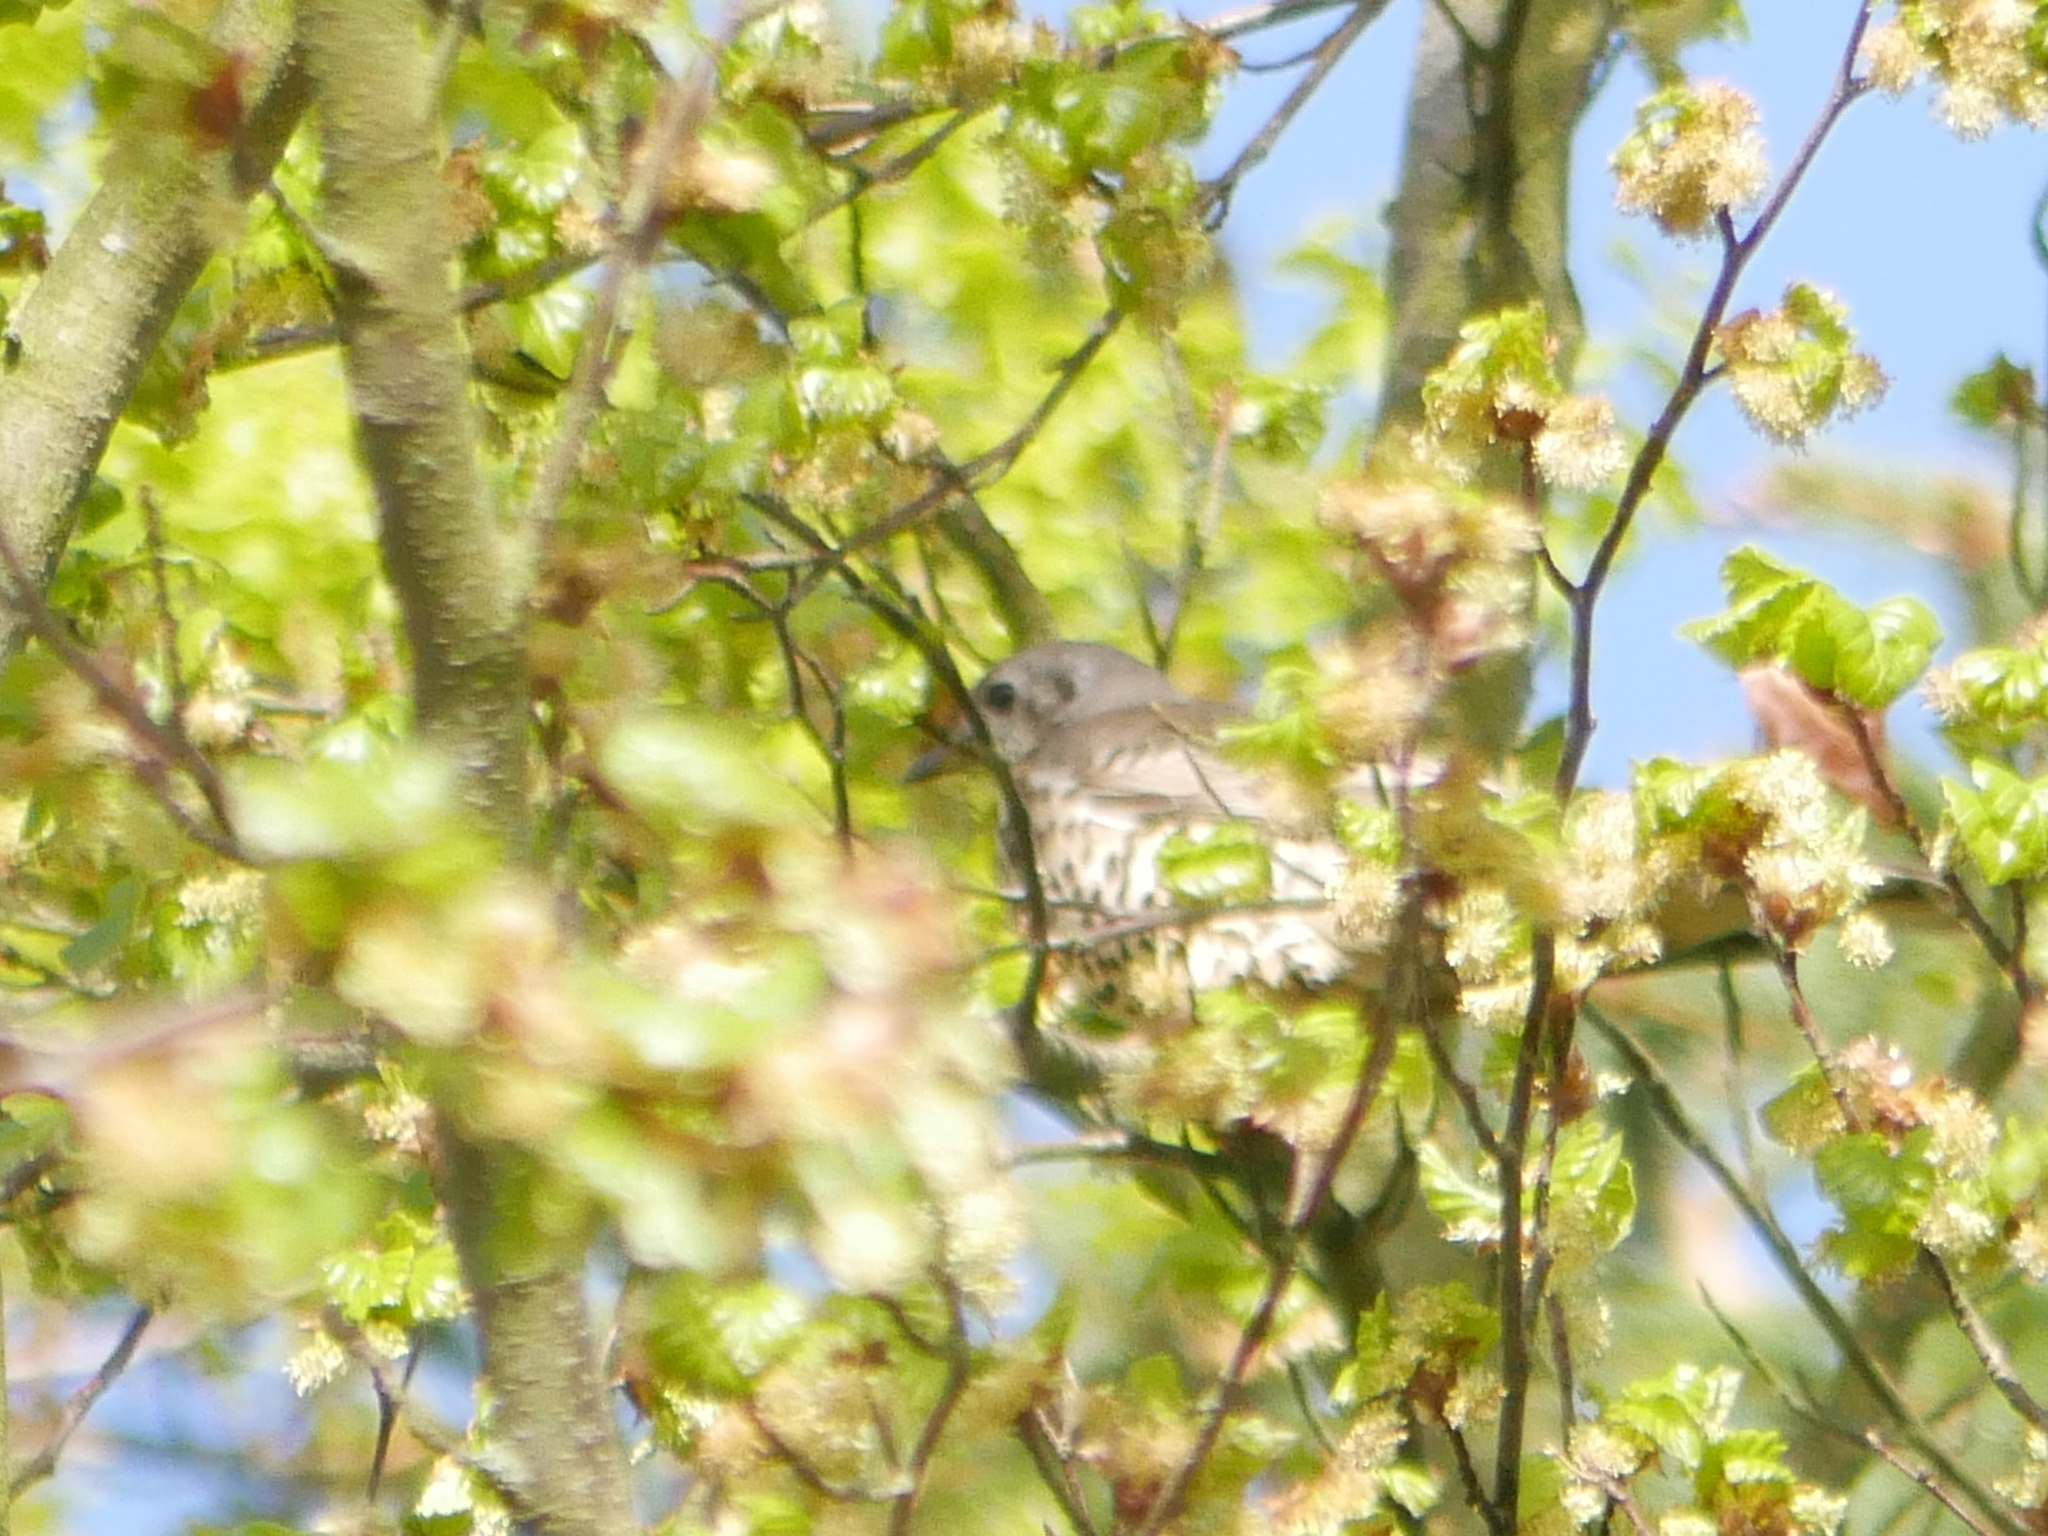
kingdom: Animalia
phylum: Chordata
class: Aves
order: Passeriformes
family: Turdidae
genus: Turdus
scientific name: Turdus viscivorus
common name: Mistle thrush
